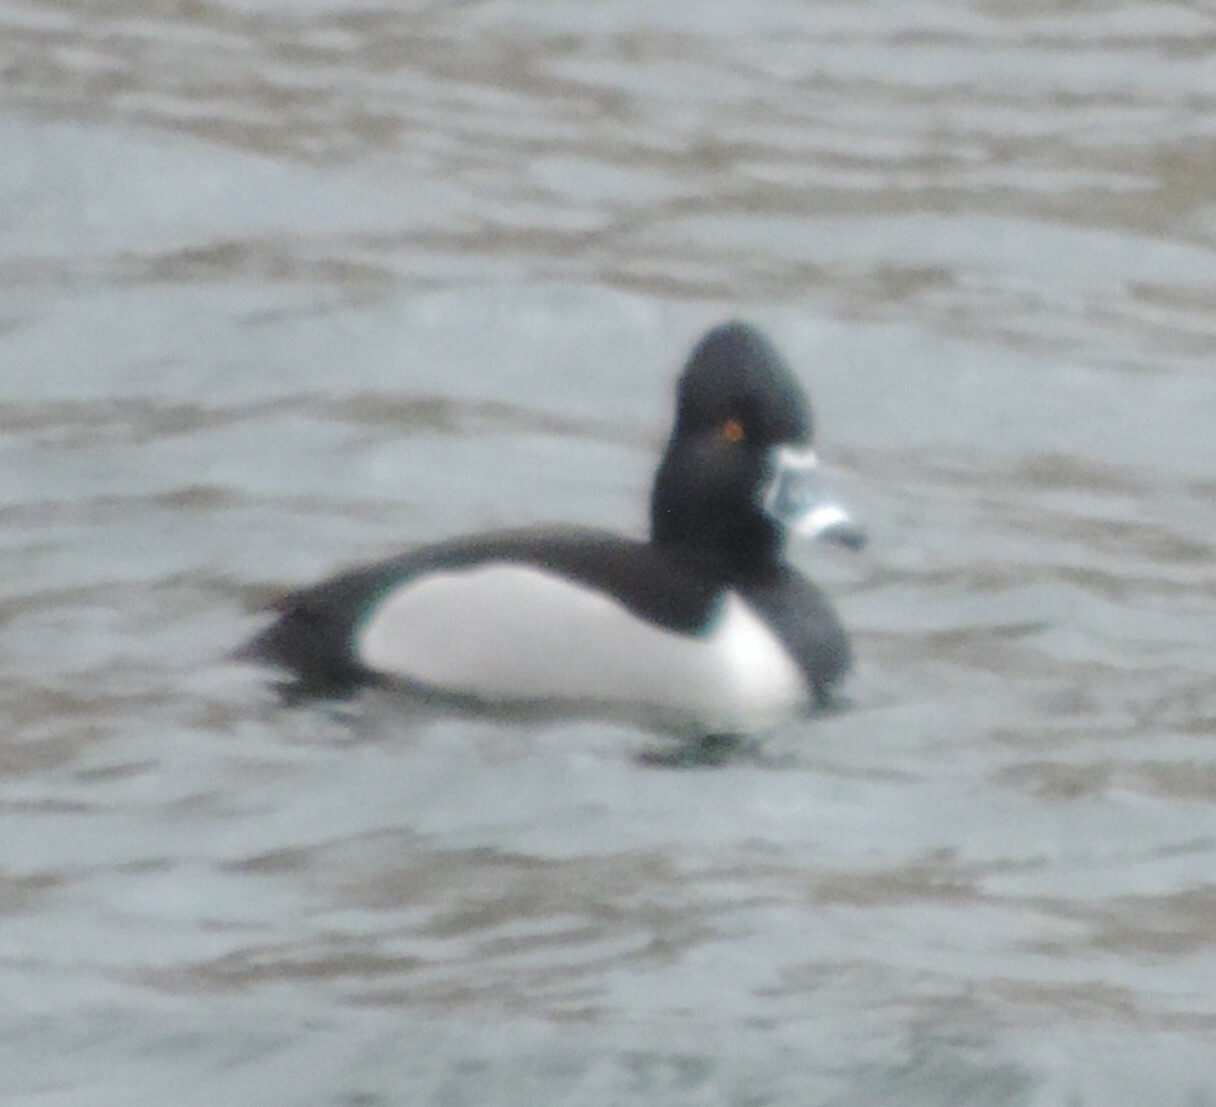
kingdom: Animalia
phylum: Chordata
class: Aves
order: Anseriformes
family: Anatidae
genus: Aythya
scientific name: Aythya collaris
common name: Ring-necked duck
